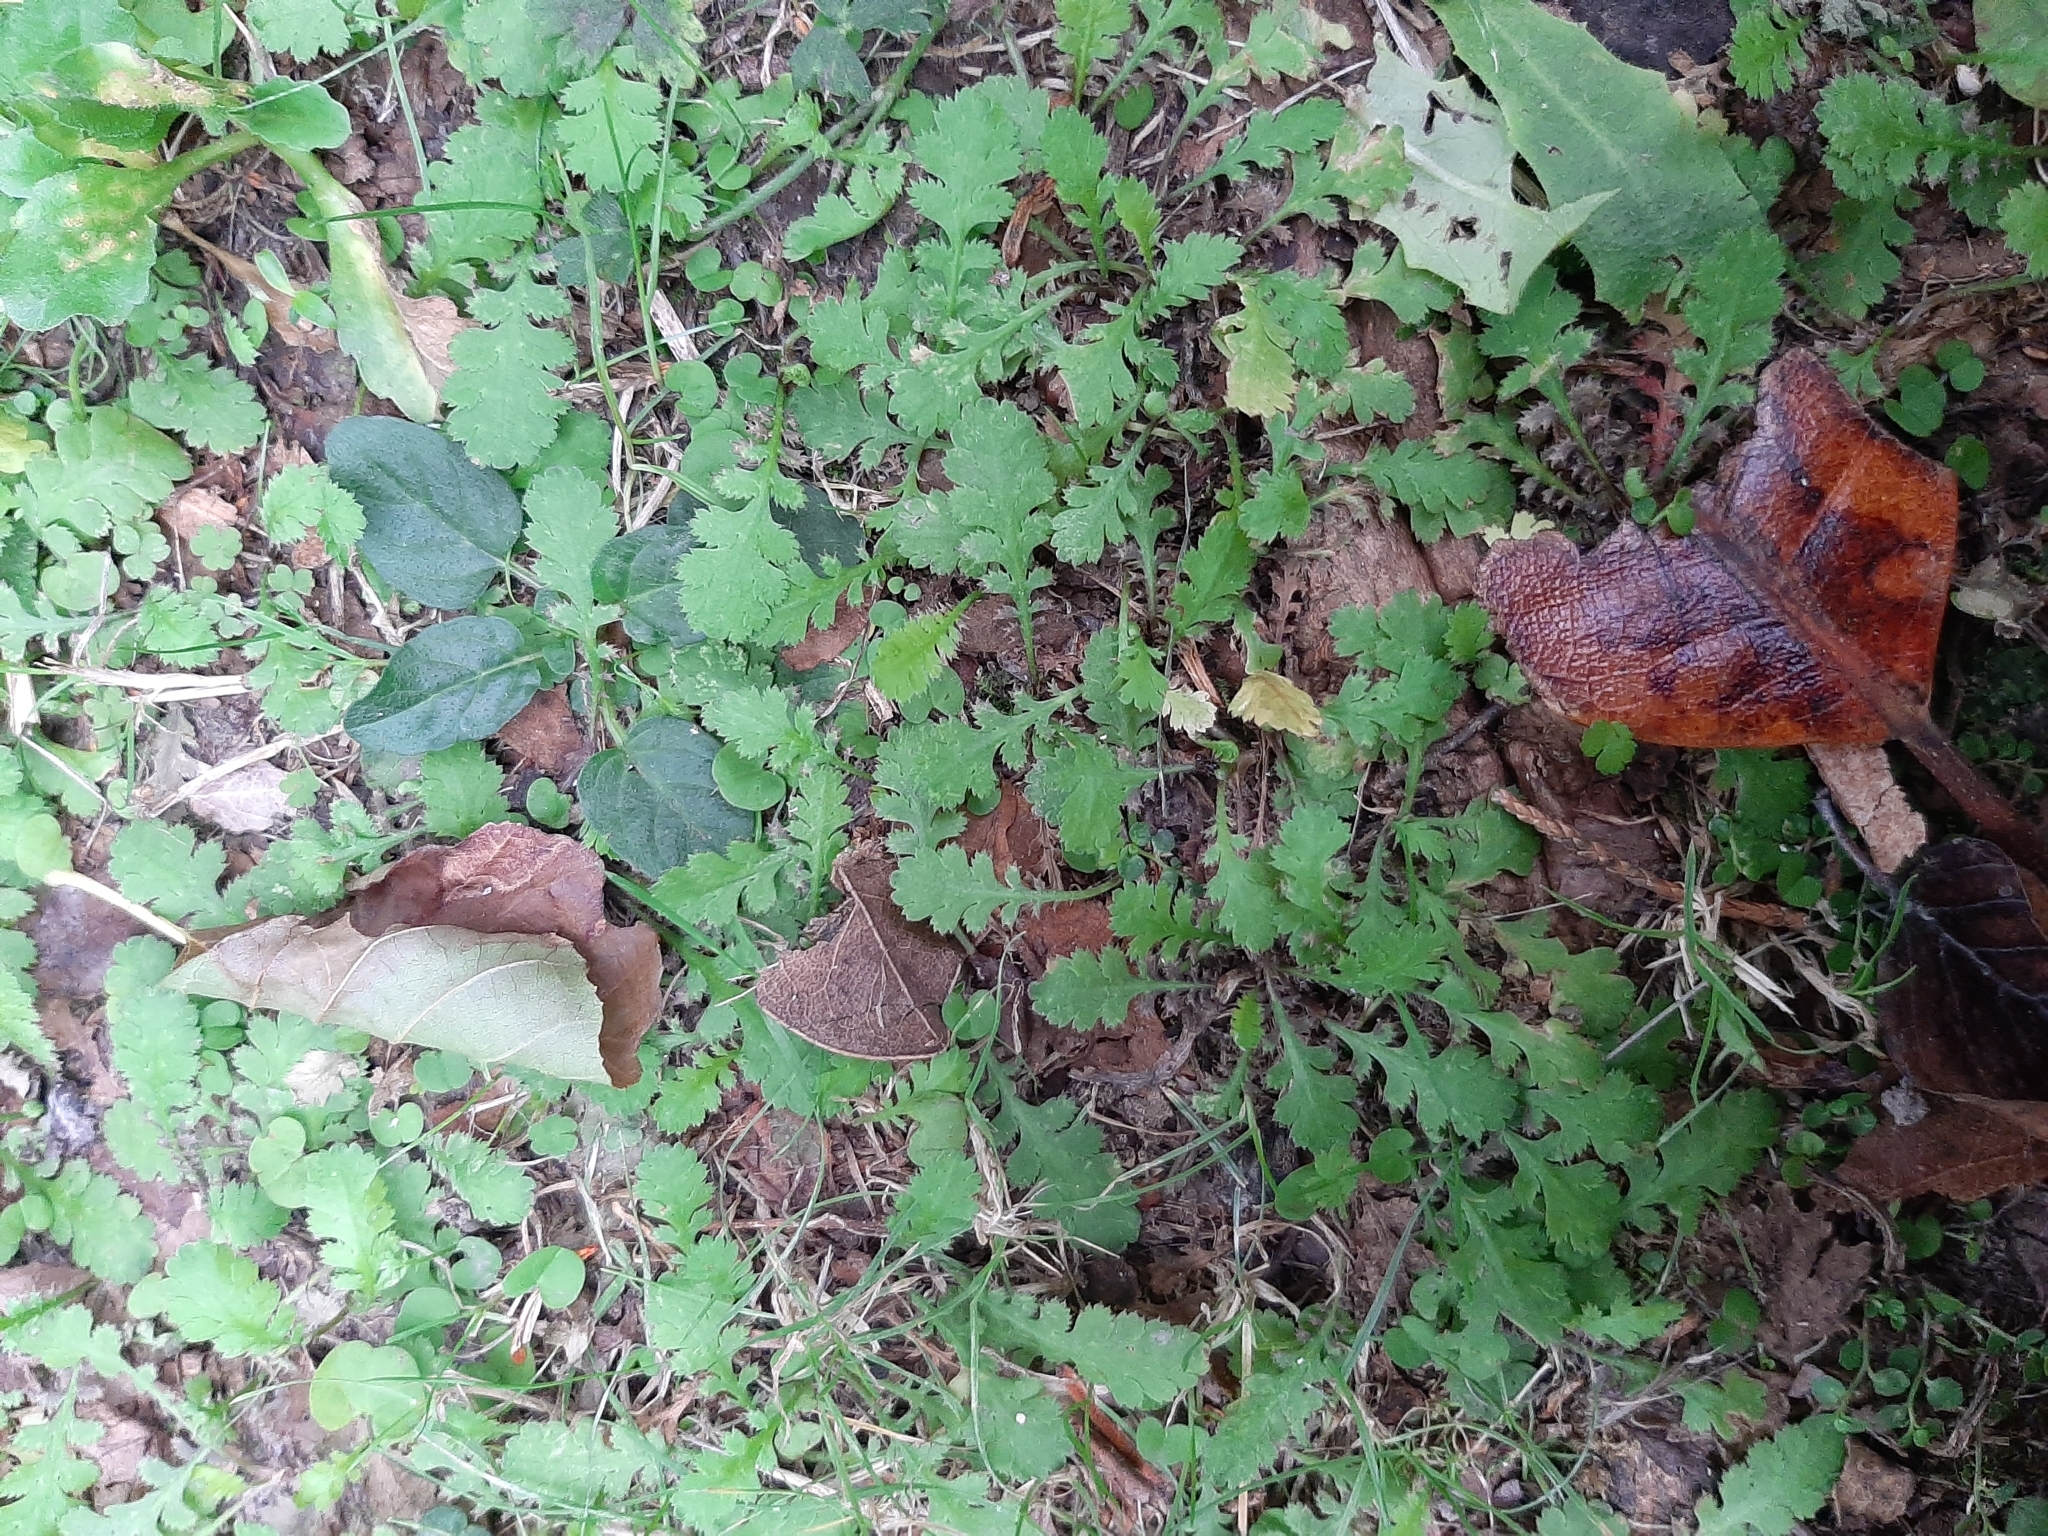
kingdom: Plantae
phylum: Tracheophyta
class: Magnoliopsida
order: Asterales
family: Asteraceae
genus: Leptinella
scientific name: Leptinella dioica
